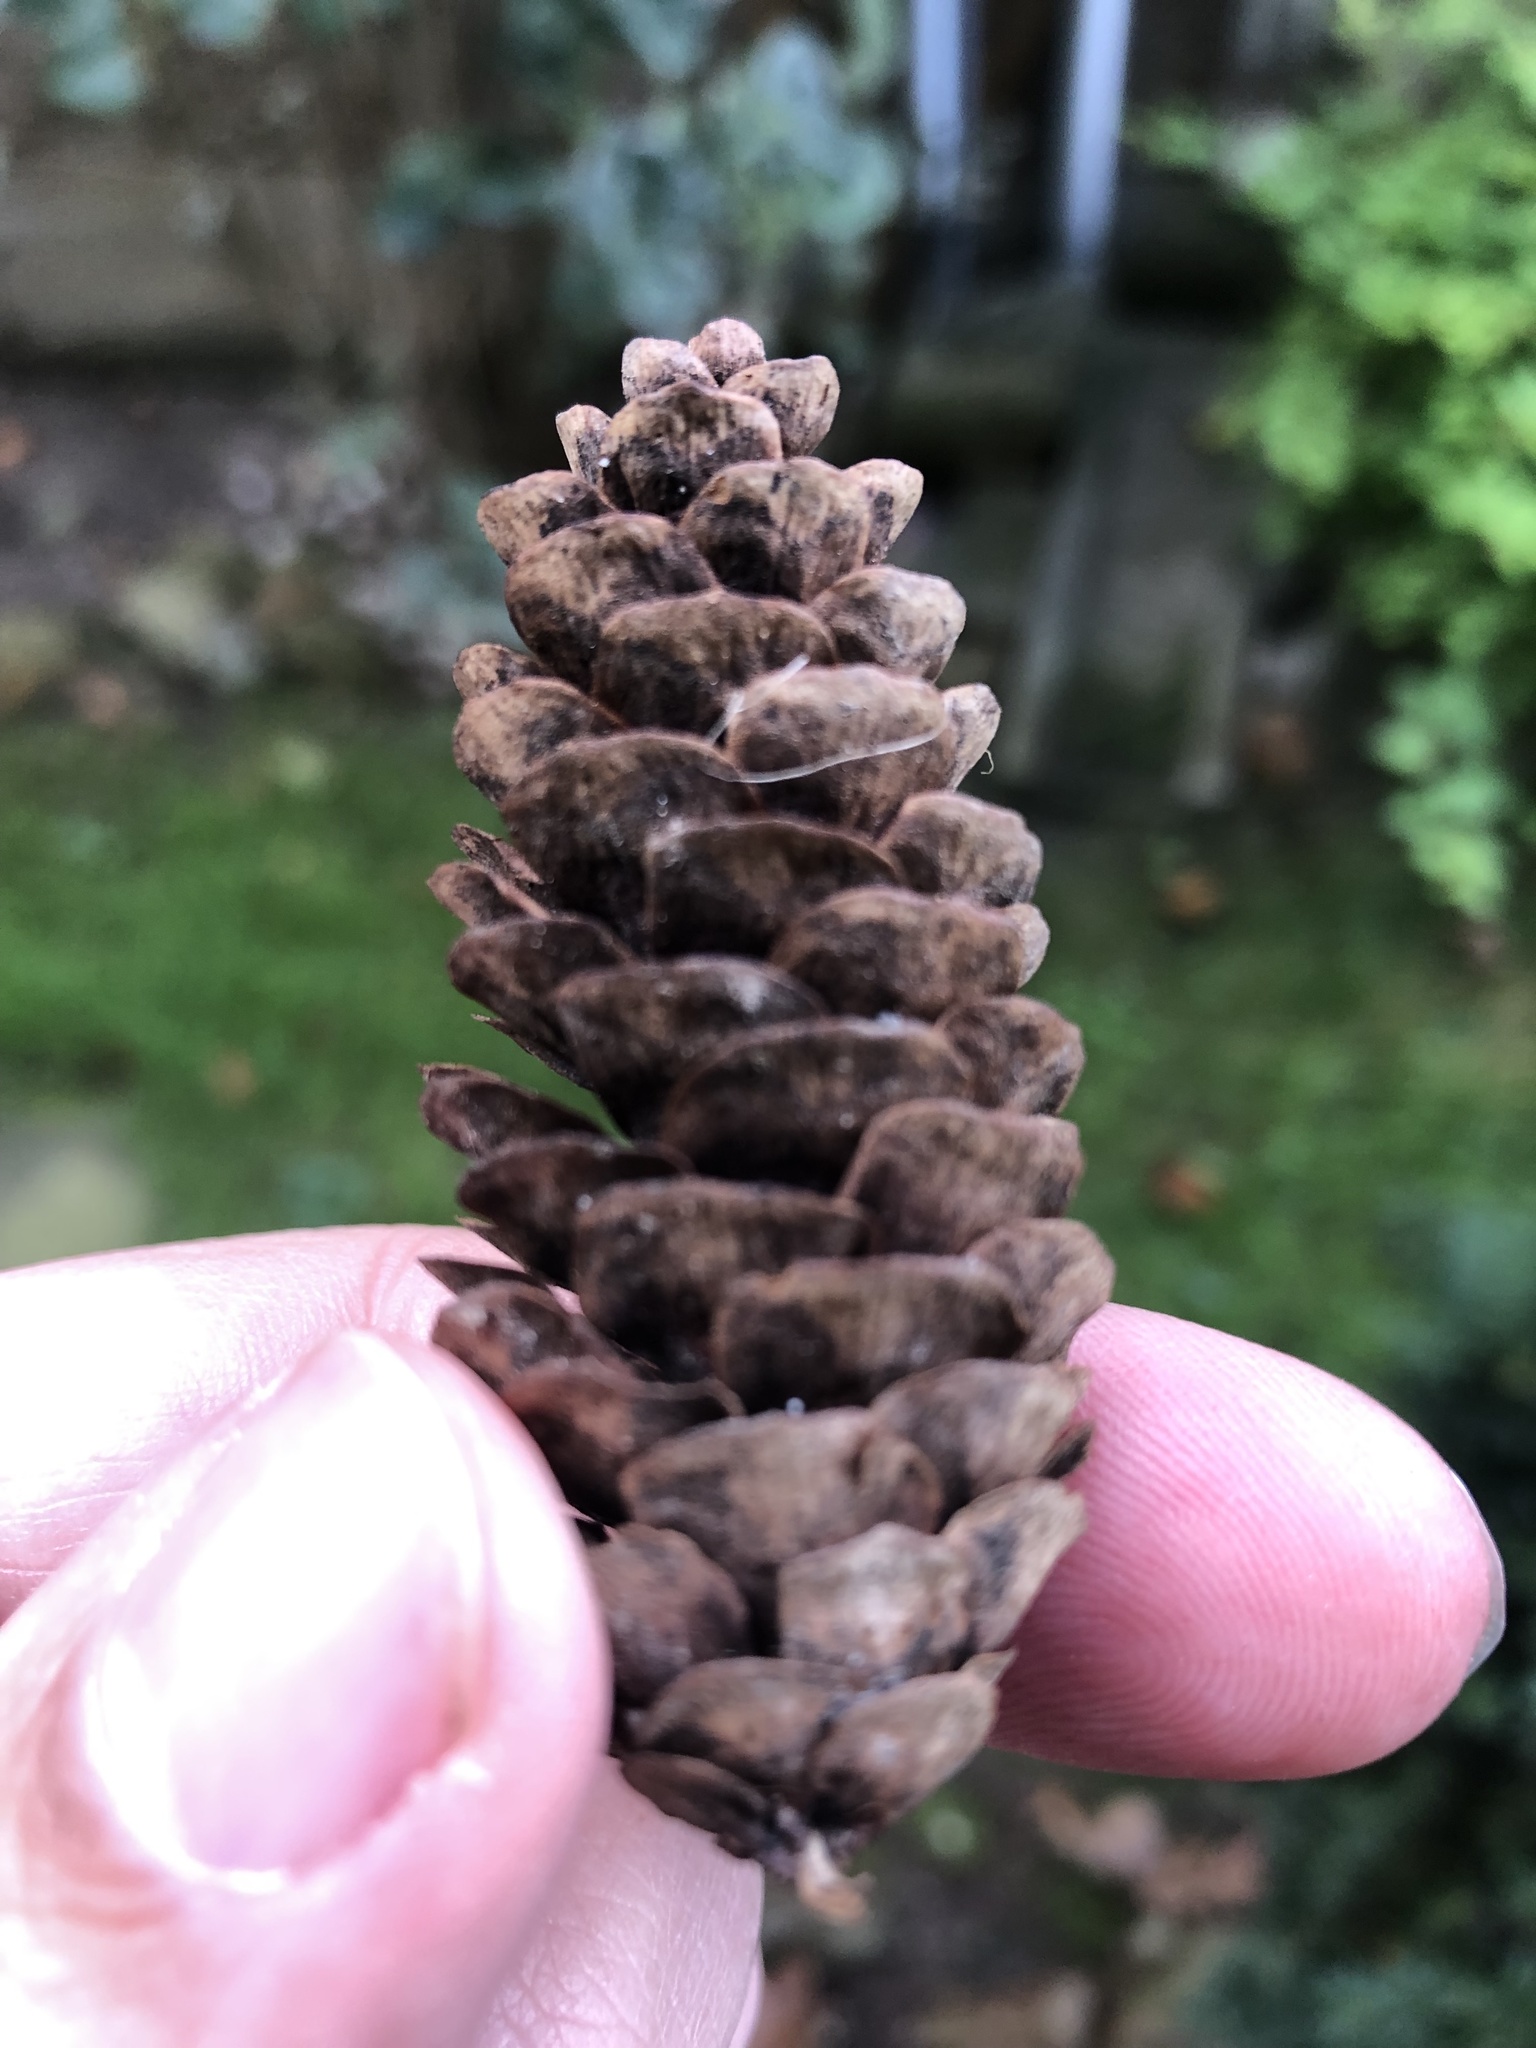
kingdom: Plantae
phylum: Tracheophyta
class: Pinopsida
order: Pinales
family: Pinaceae
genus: Picea
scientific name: Picea glauca
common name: White spruce
